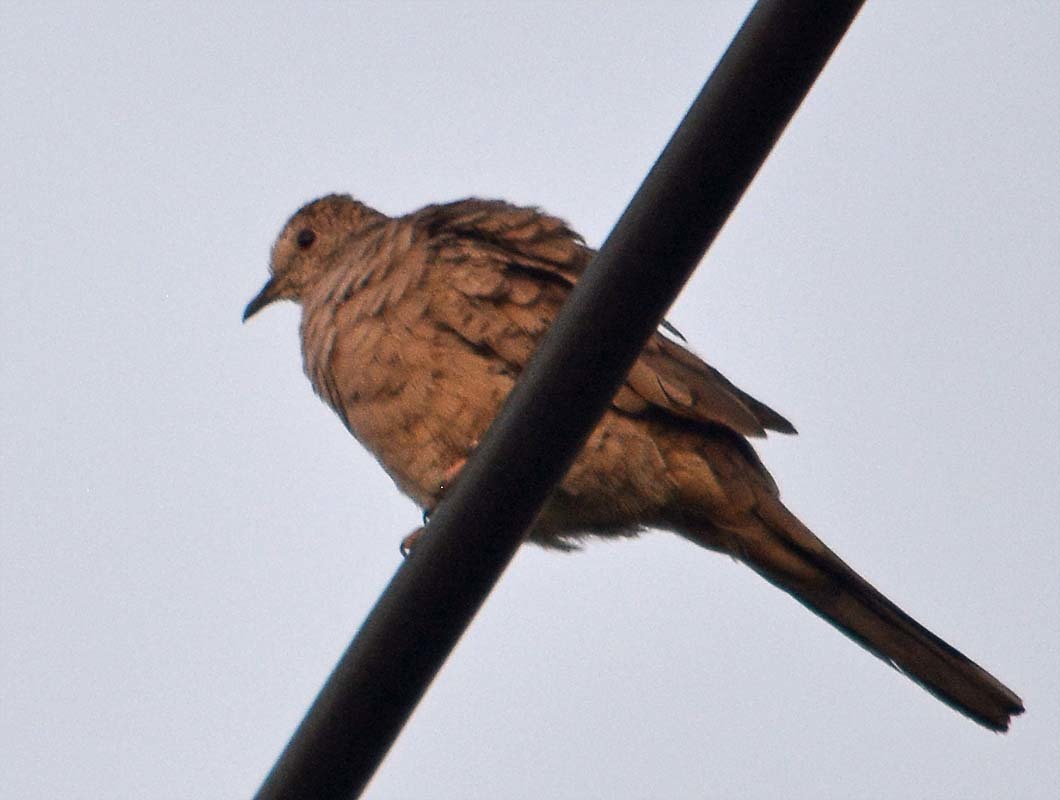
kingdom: Animalia
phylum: Chordata
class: Aves
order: Columbiformes
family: Columbidae
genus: Columbina
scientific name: Columbina inca
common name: Inca dove
